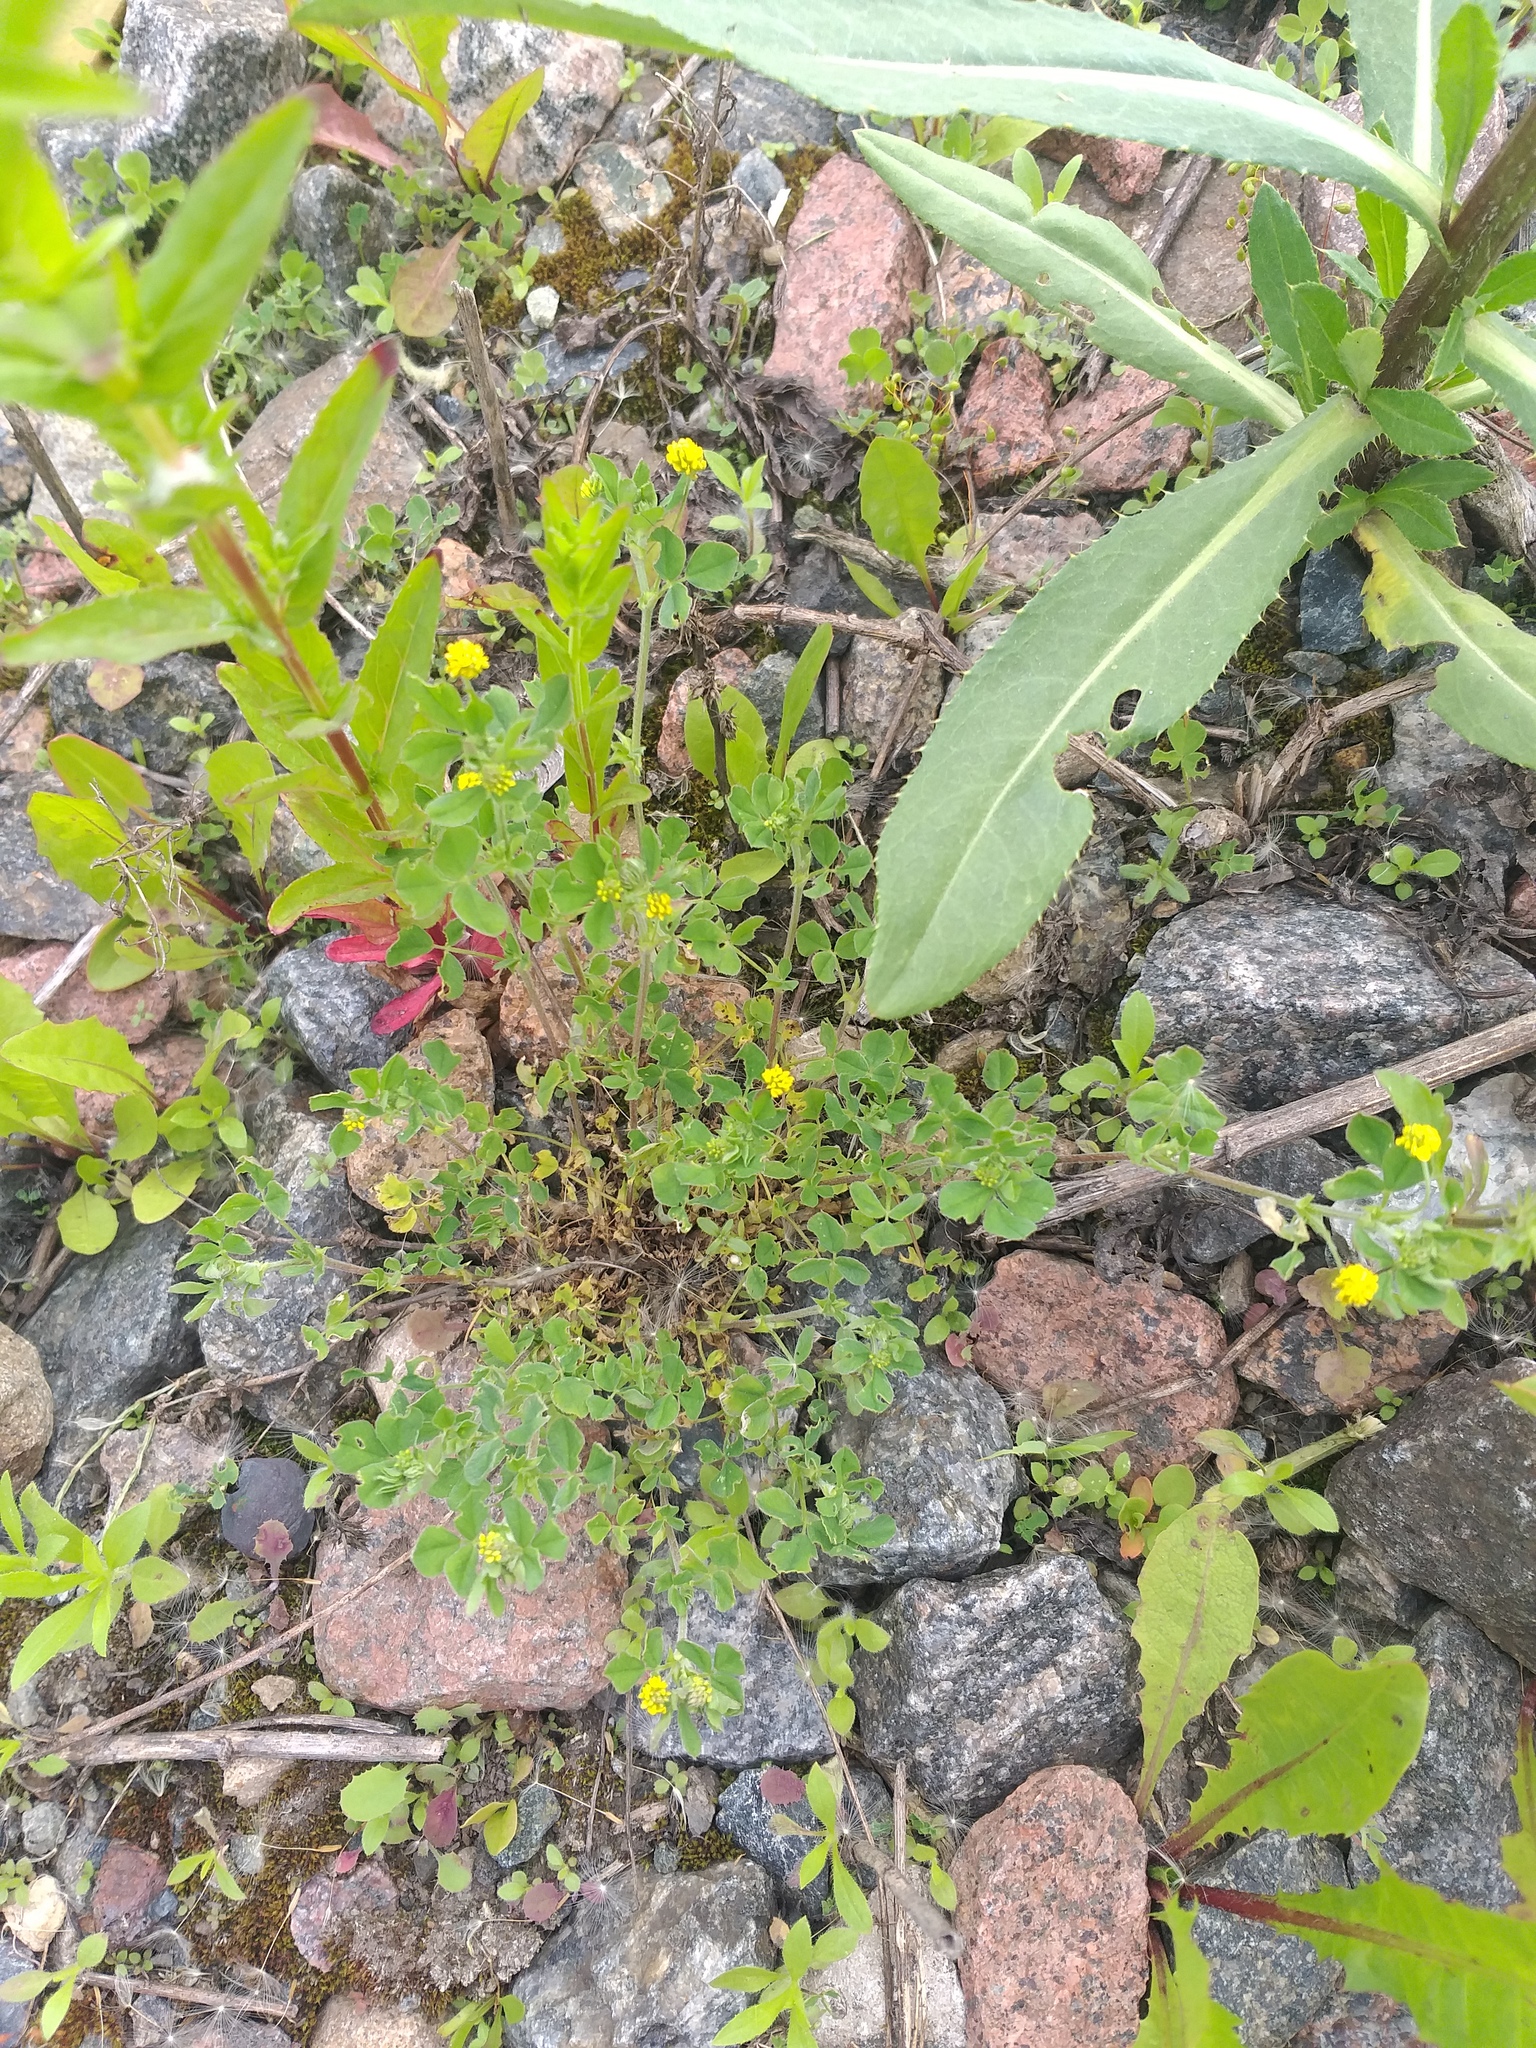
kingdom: Plantae
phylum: Tracheophyta
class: Magnoliopsida
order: Fabales
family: Fabaceae
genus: Medicago
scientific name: Medicago lupulina
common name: Black medick
